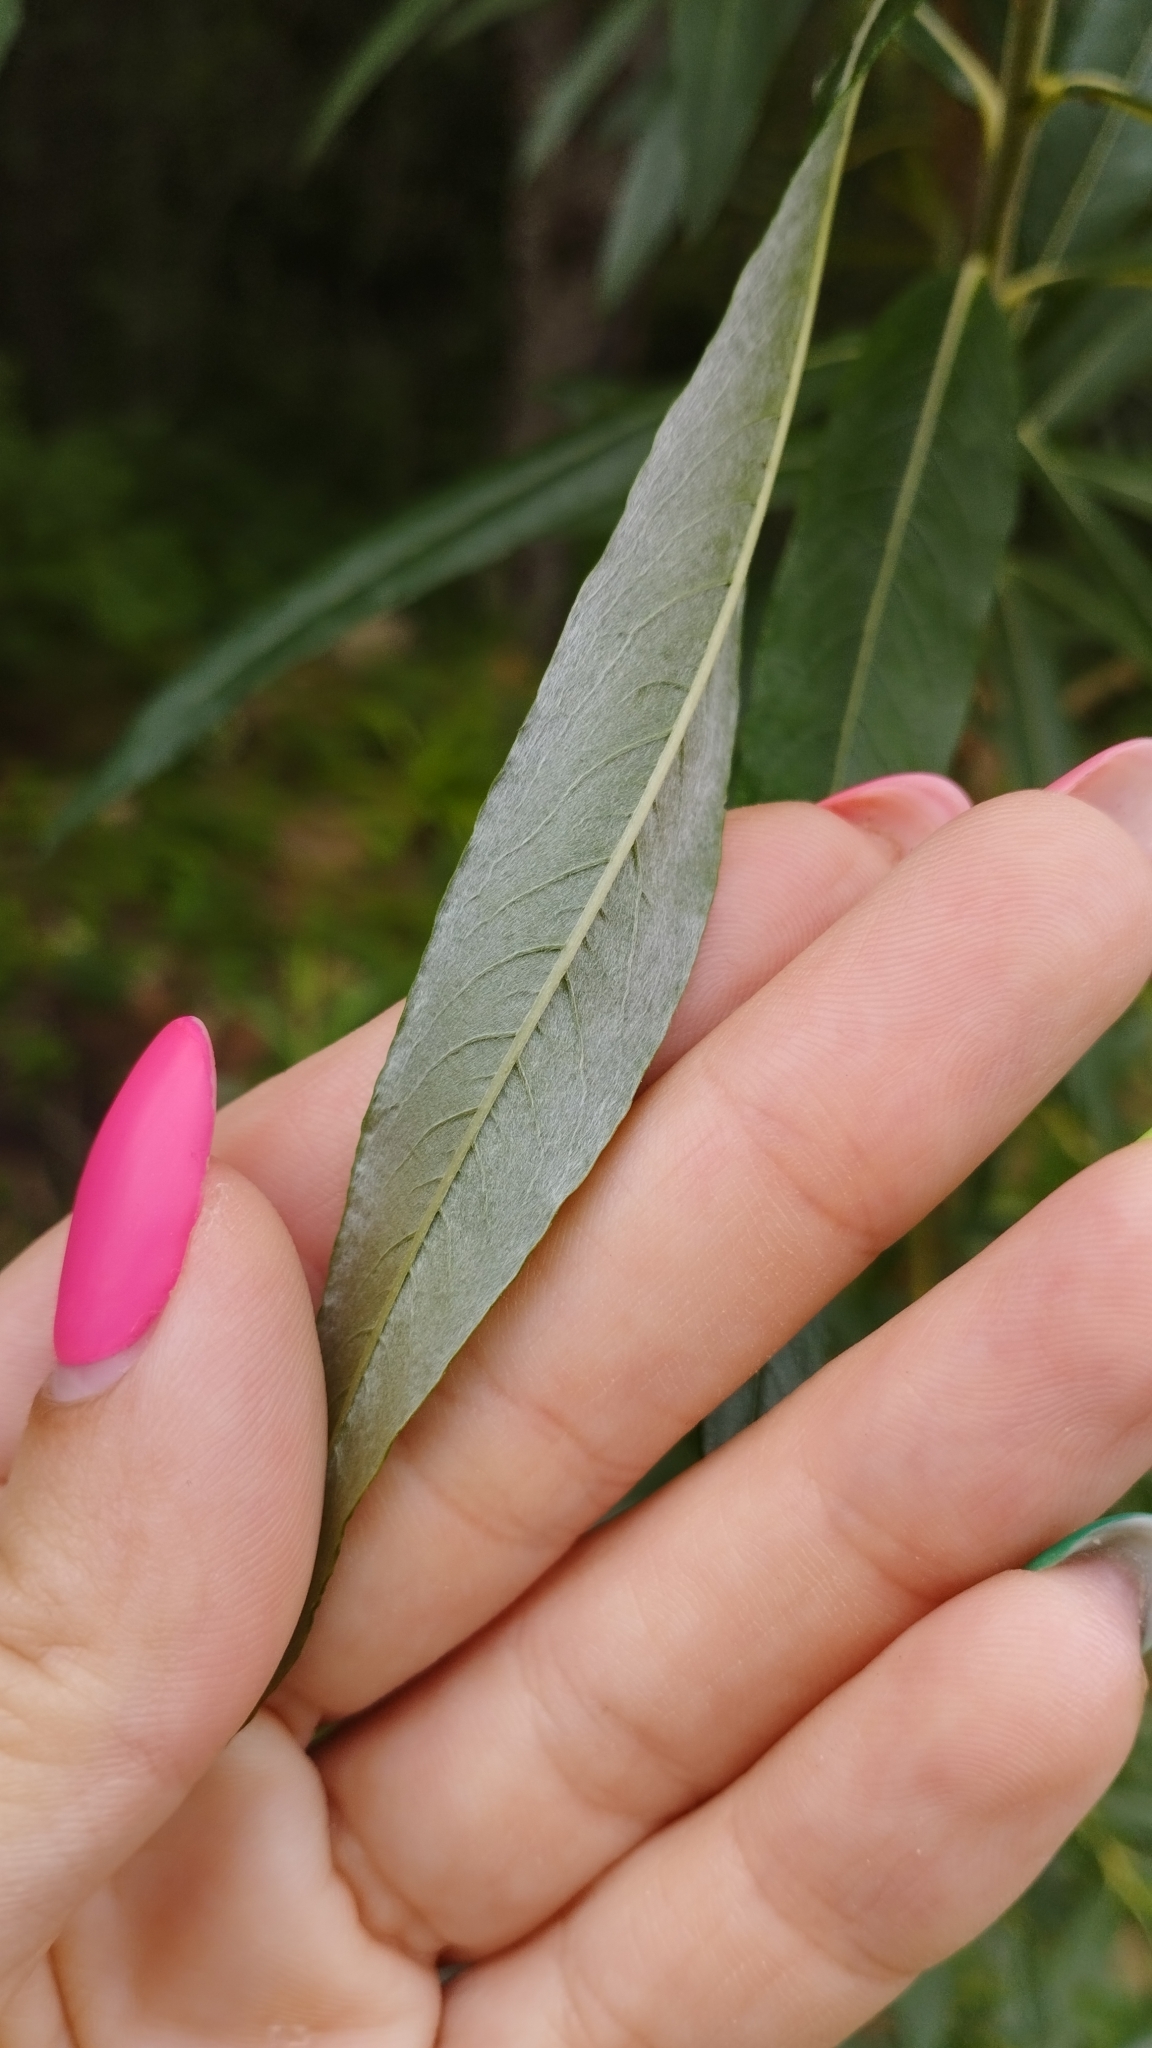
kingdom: Plantae
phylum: Tracheophyta
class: Magnoliopsida
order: Malpighiales
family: Salicaceae
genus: Salix
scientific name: Salix schwerinii
